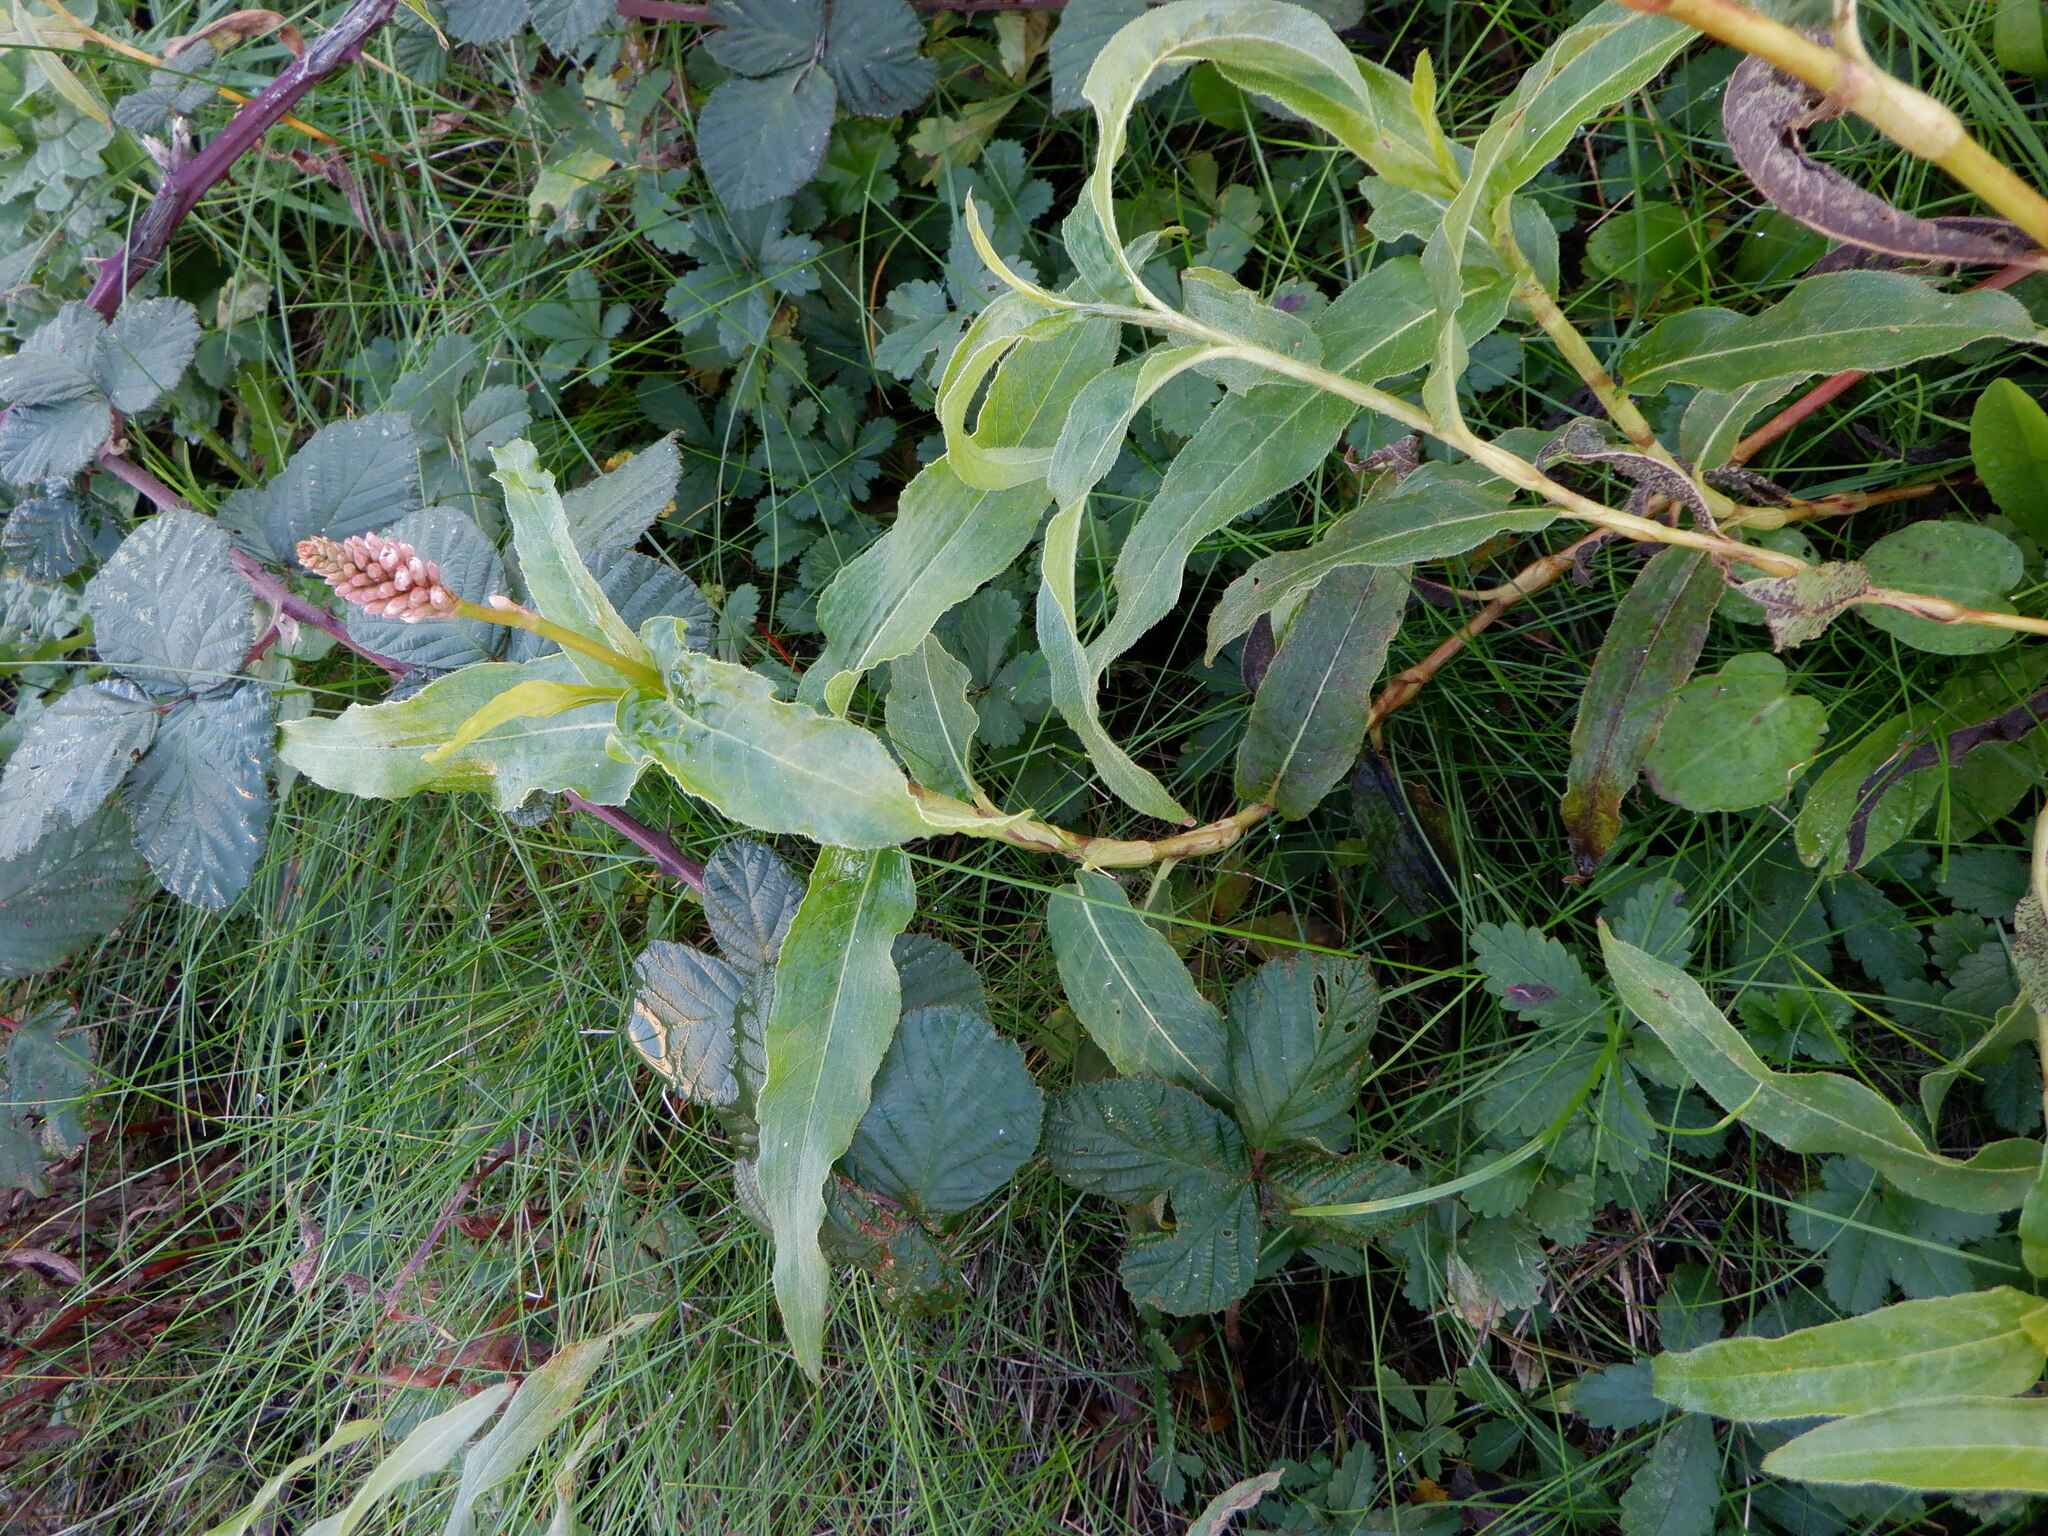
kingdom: Plantae
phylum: Tracheophyta
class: Magnoliopsida
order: Caryophyllales
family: Polygonaceae
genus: Persicaria
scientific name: Persicaria amphibia
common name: Amphibious bistort
